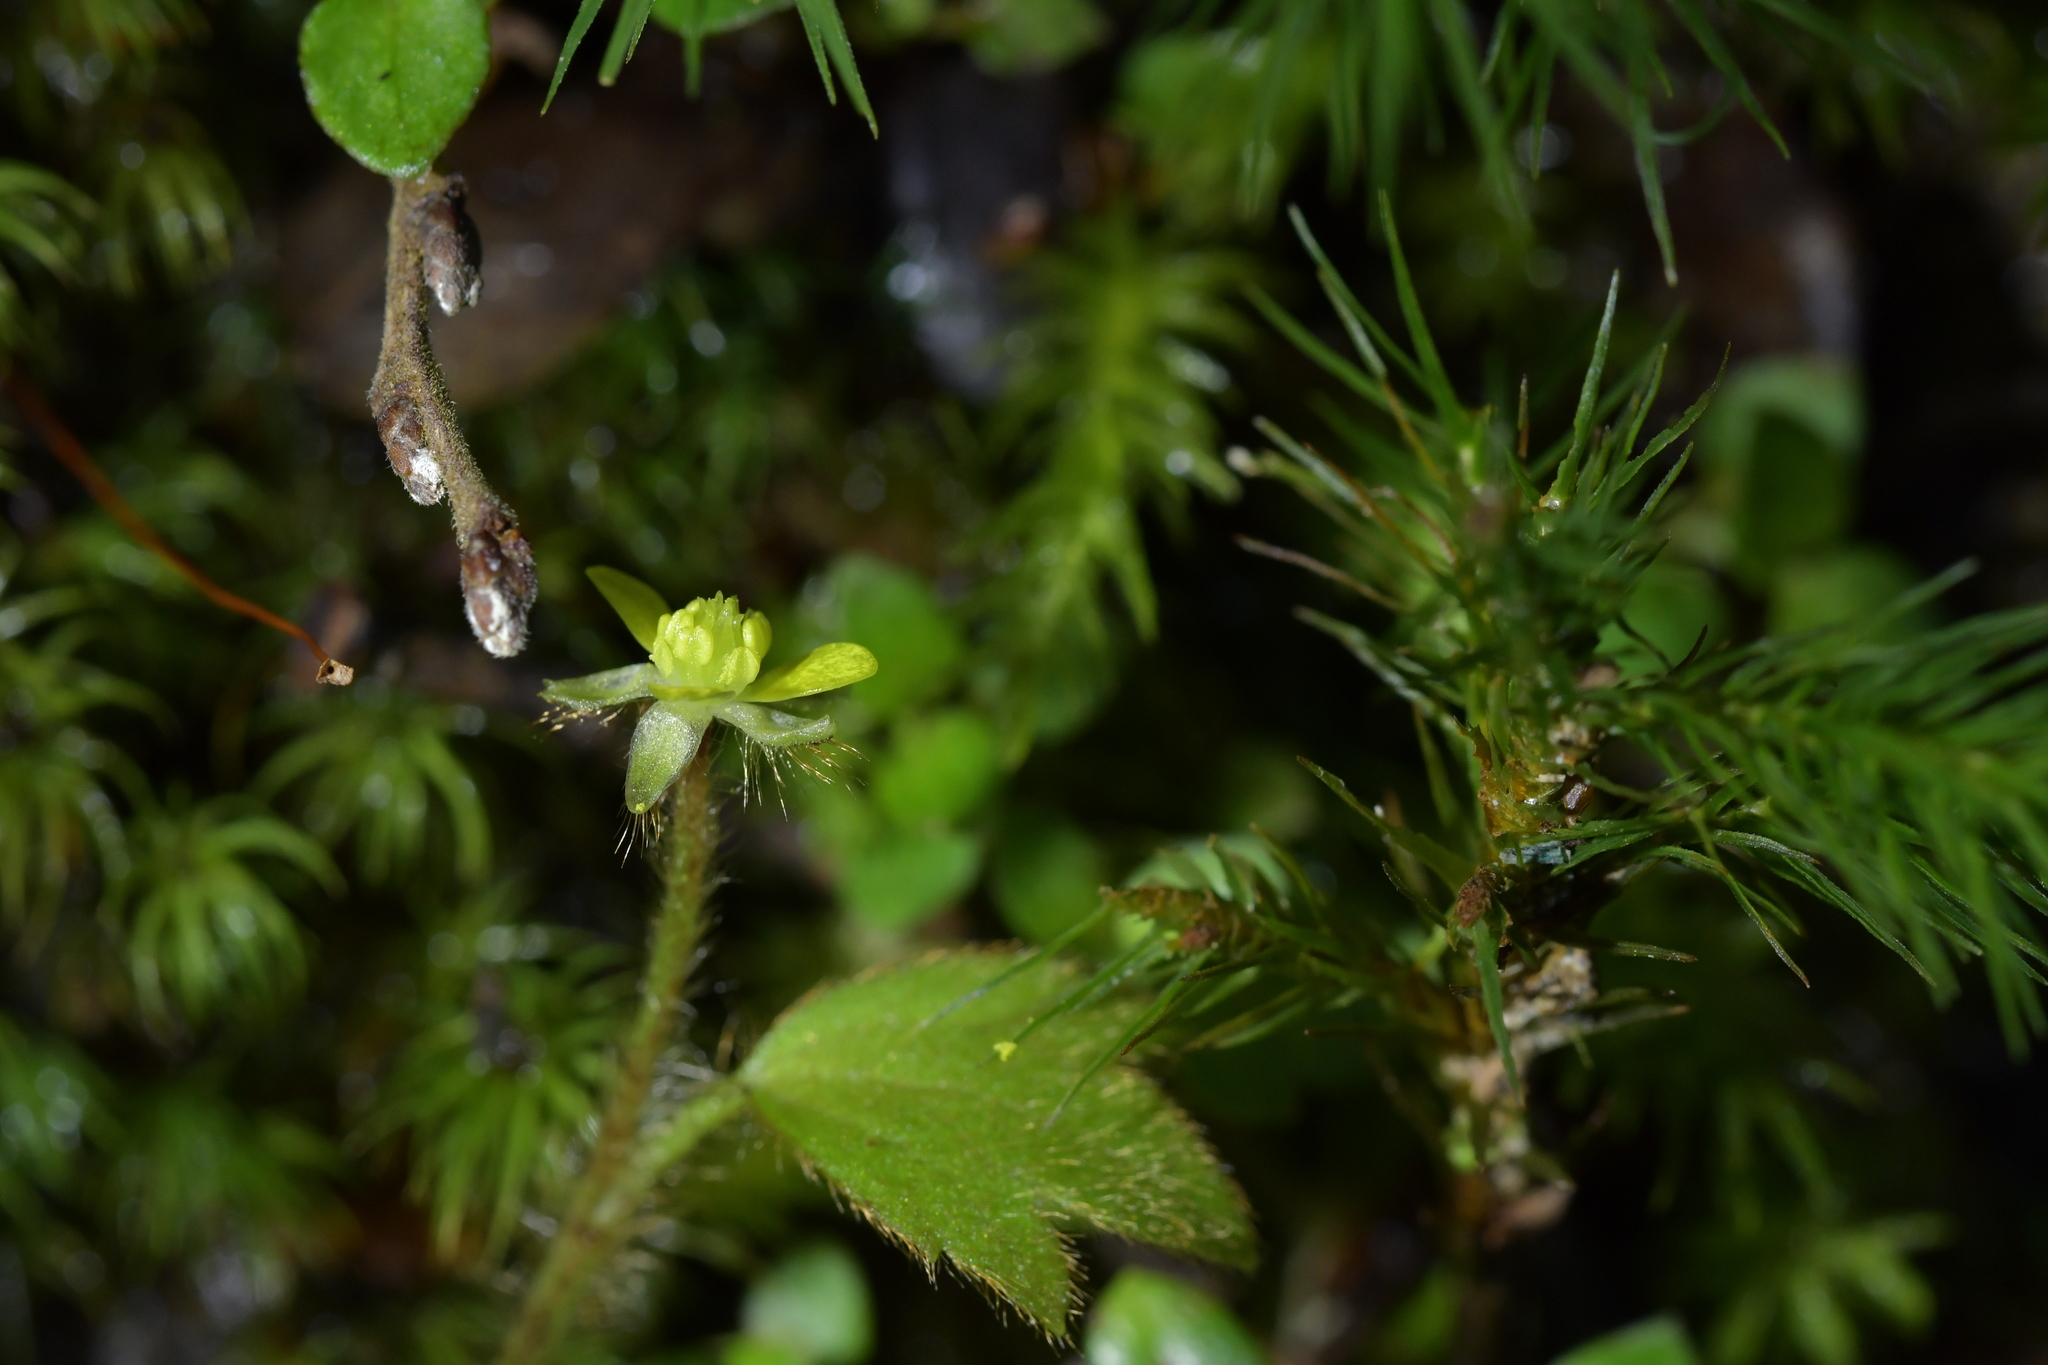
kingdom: Plantae
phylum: Tracheophyta
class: Magnoliopsida
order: Ranunculales
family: Ranunculaceae
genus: Ranunculus
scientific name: Ranunculus reflexus
